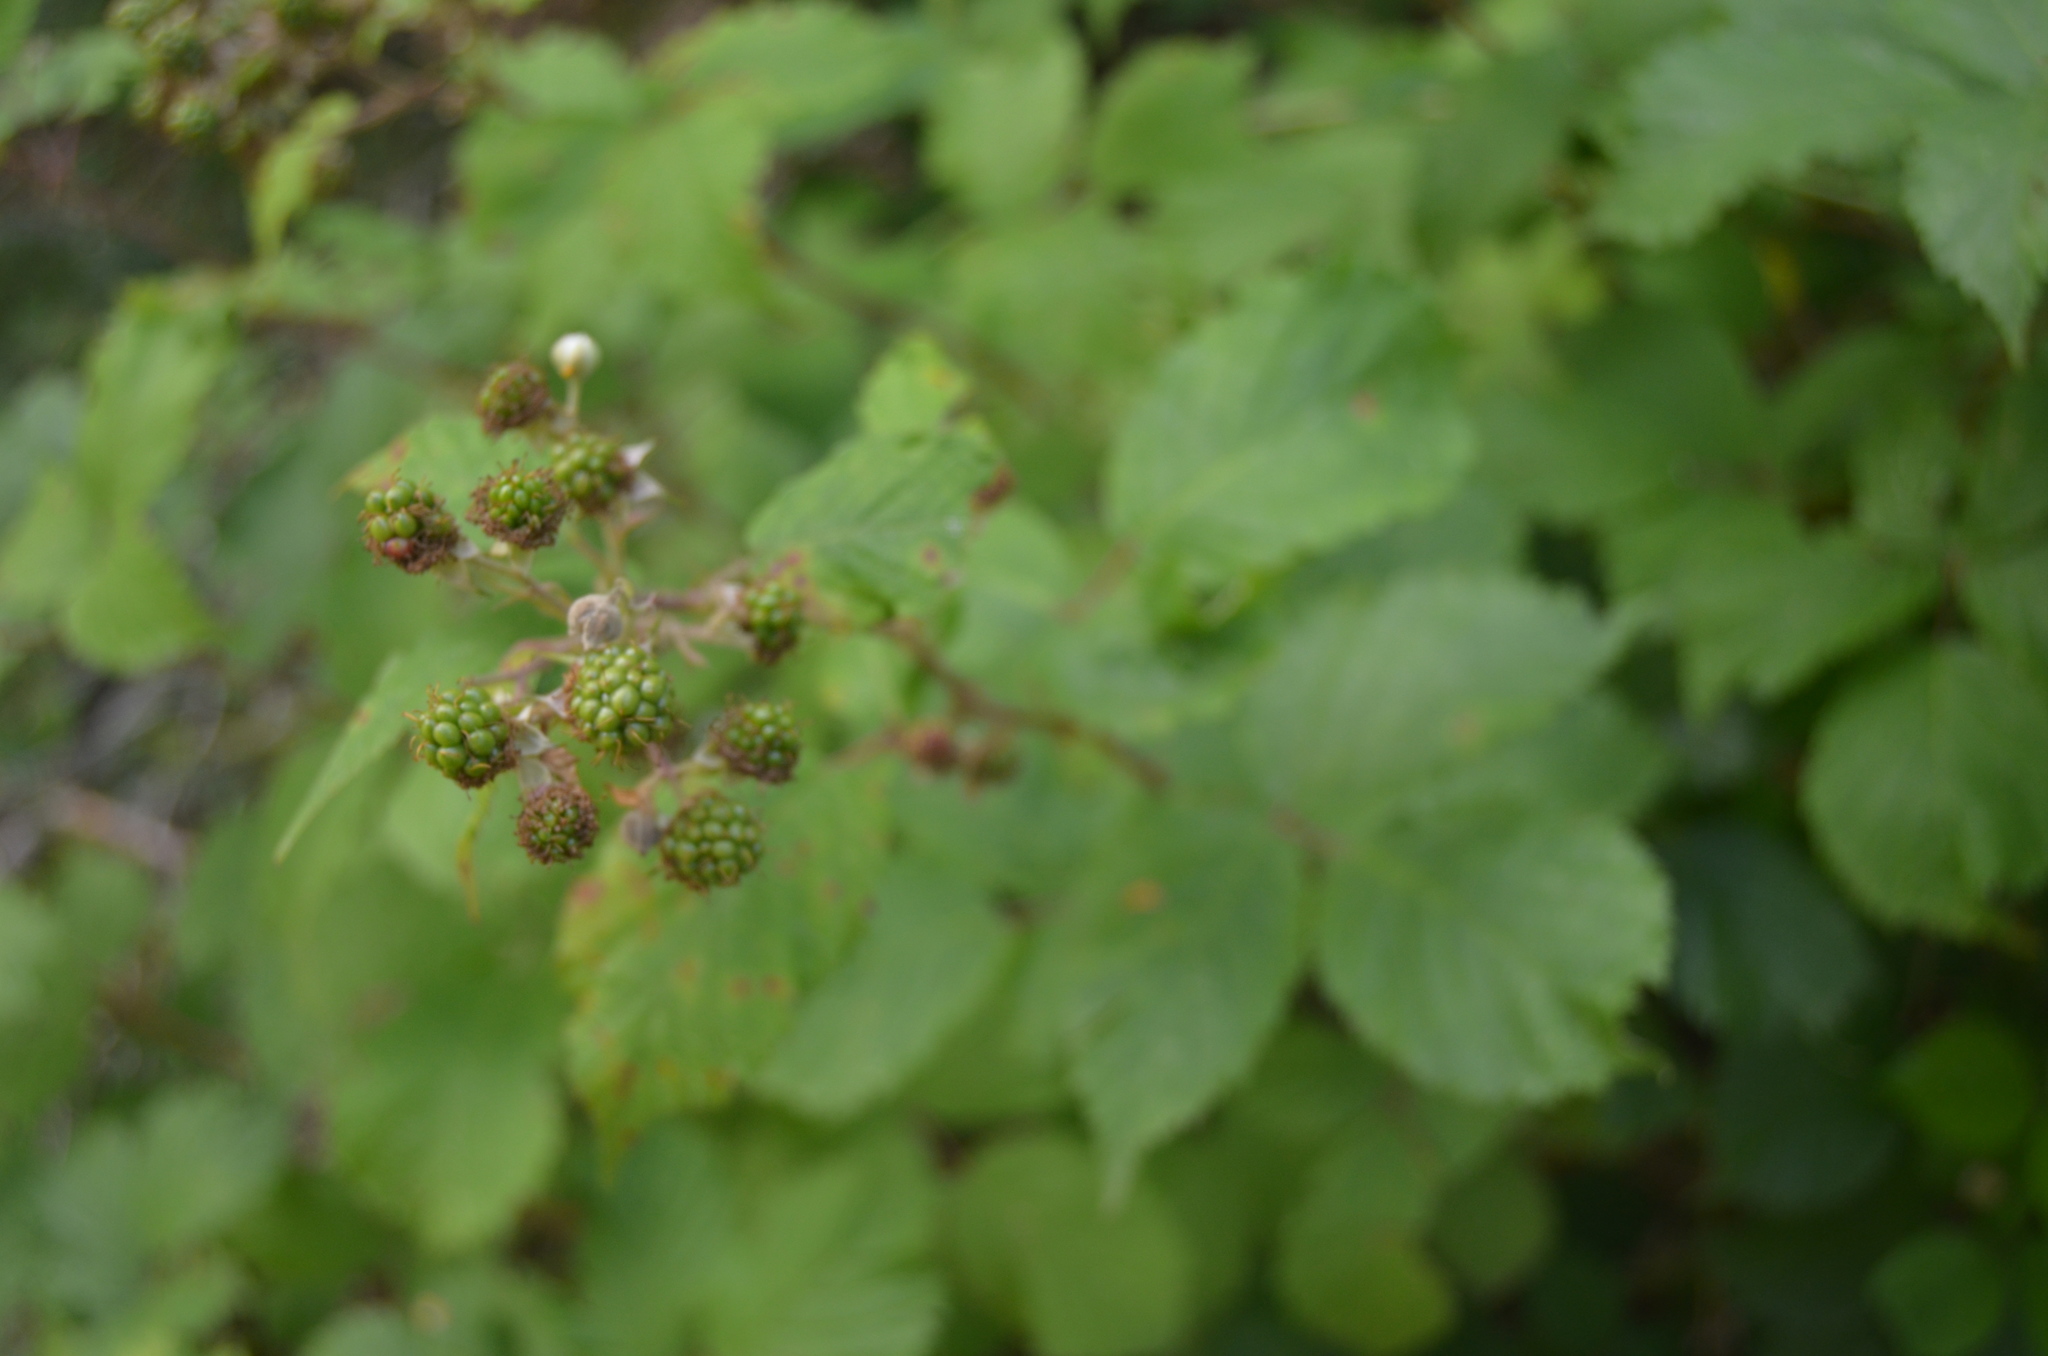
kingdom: Plantae
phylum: Tracheophyta
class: Magnoliopsida
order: Rosales
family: Rosaceae
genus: Rubus
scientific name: Rubus ulmifolius
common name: Elmleaf blackberry
